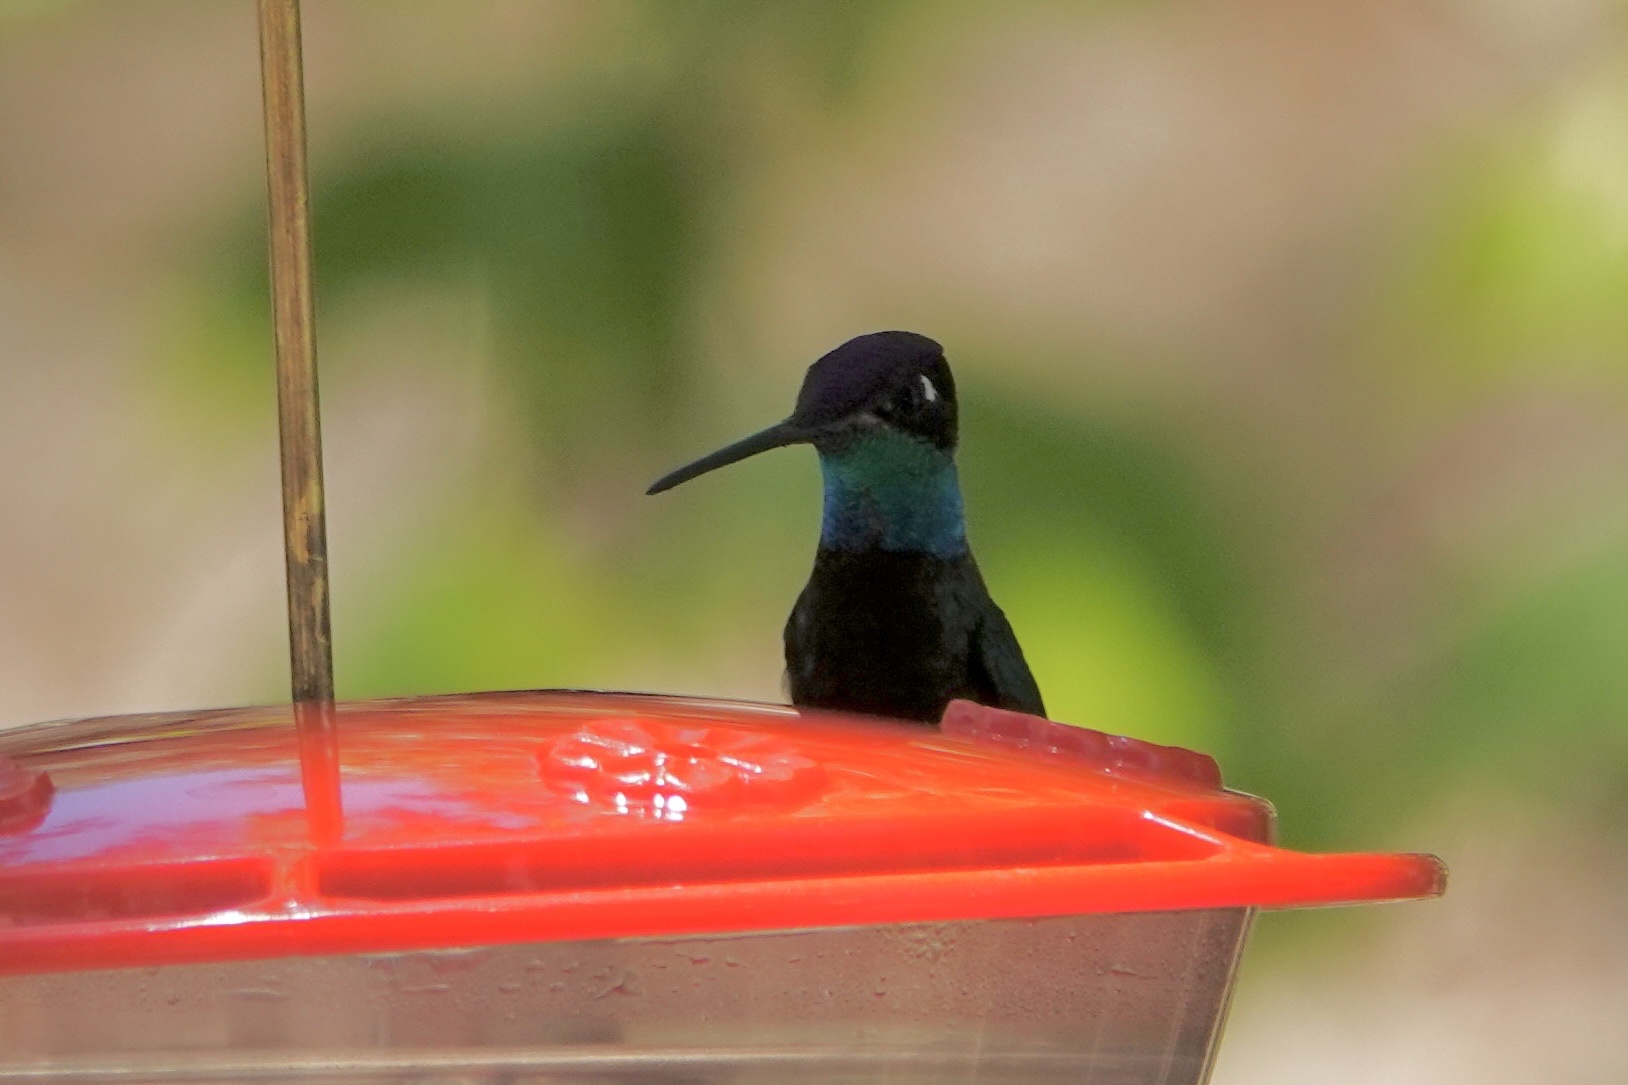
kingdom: Animalia
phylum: Chordata
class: Aves
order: Apodiformes
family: Trochilidae
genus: Eugenes
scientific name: Eugenes fulgens
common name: Magnificent hummingbird
